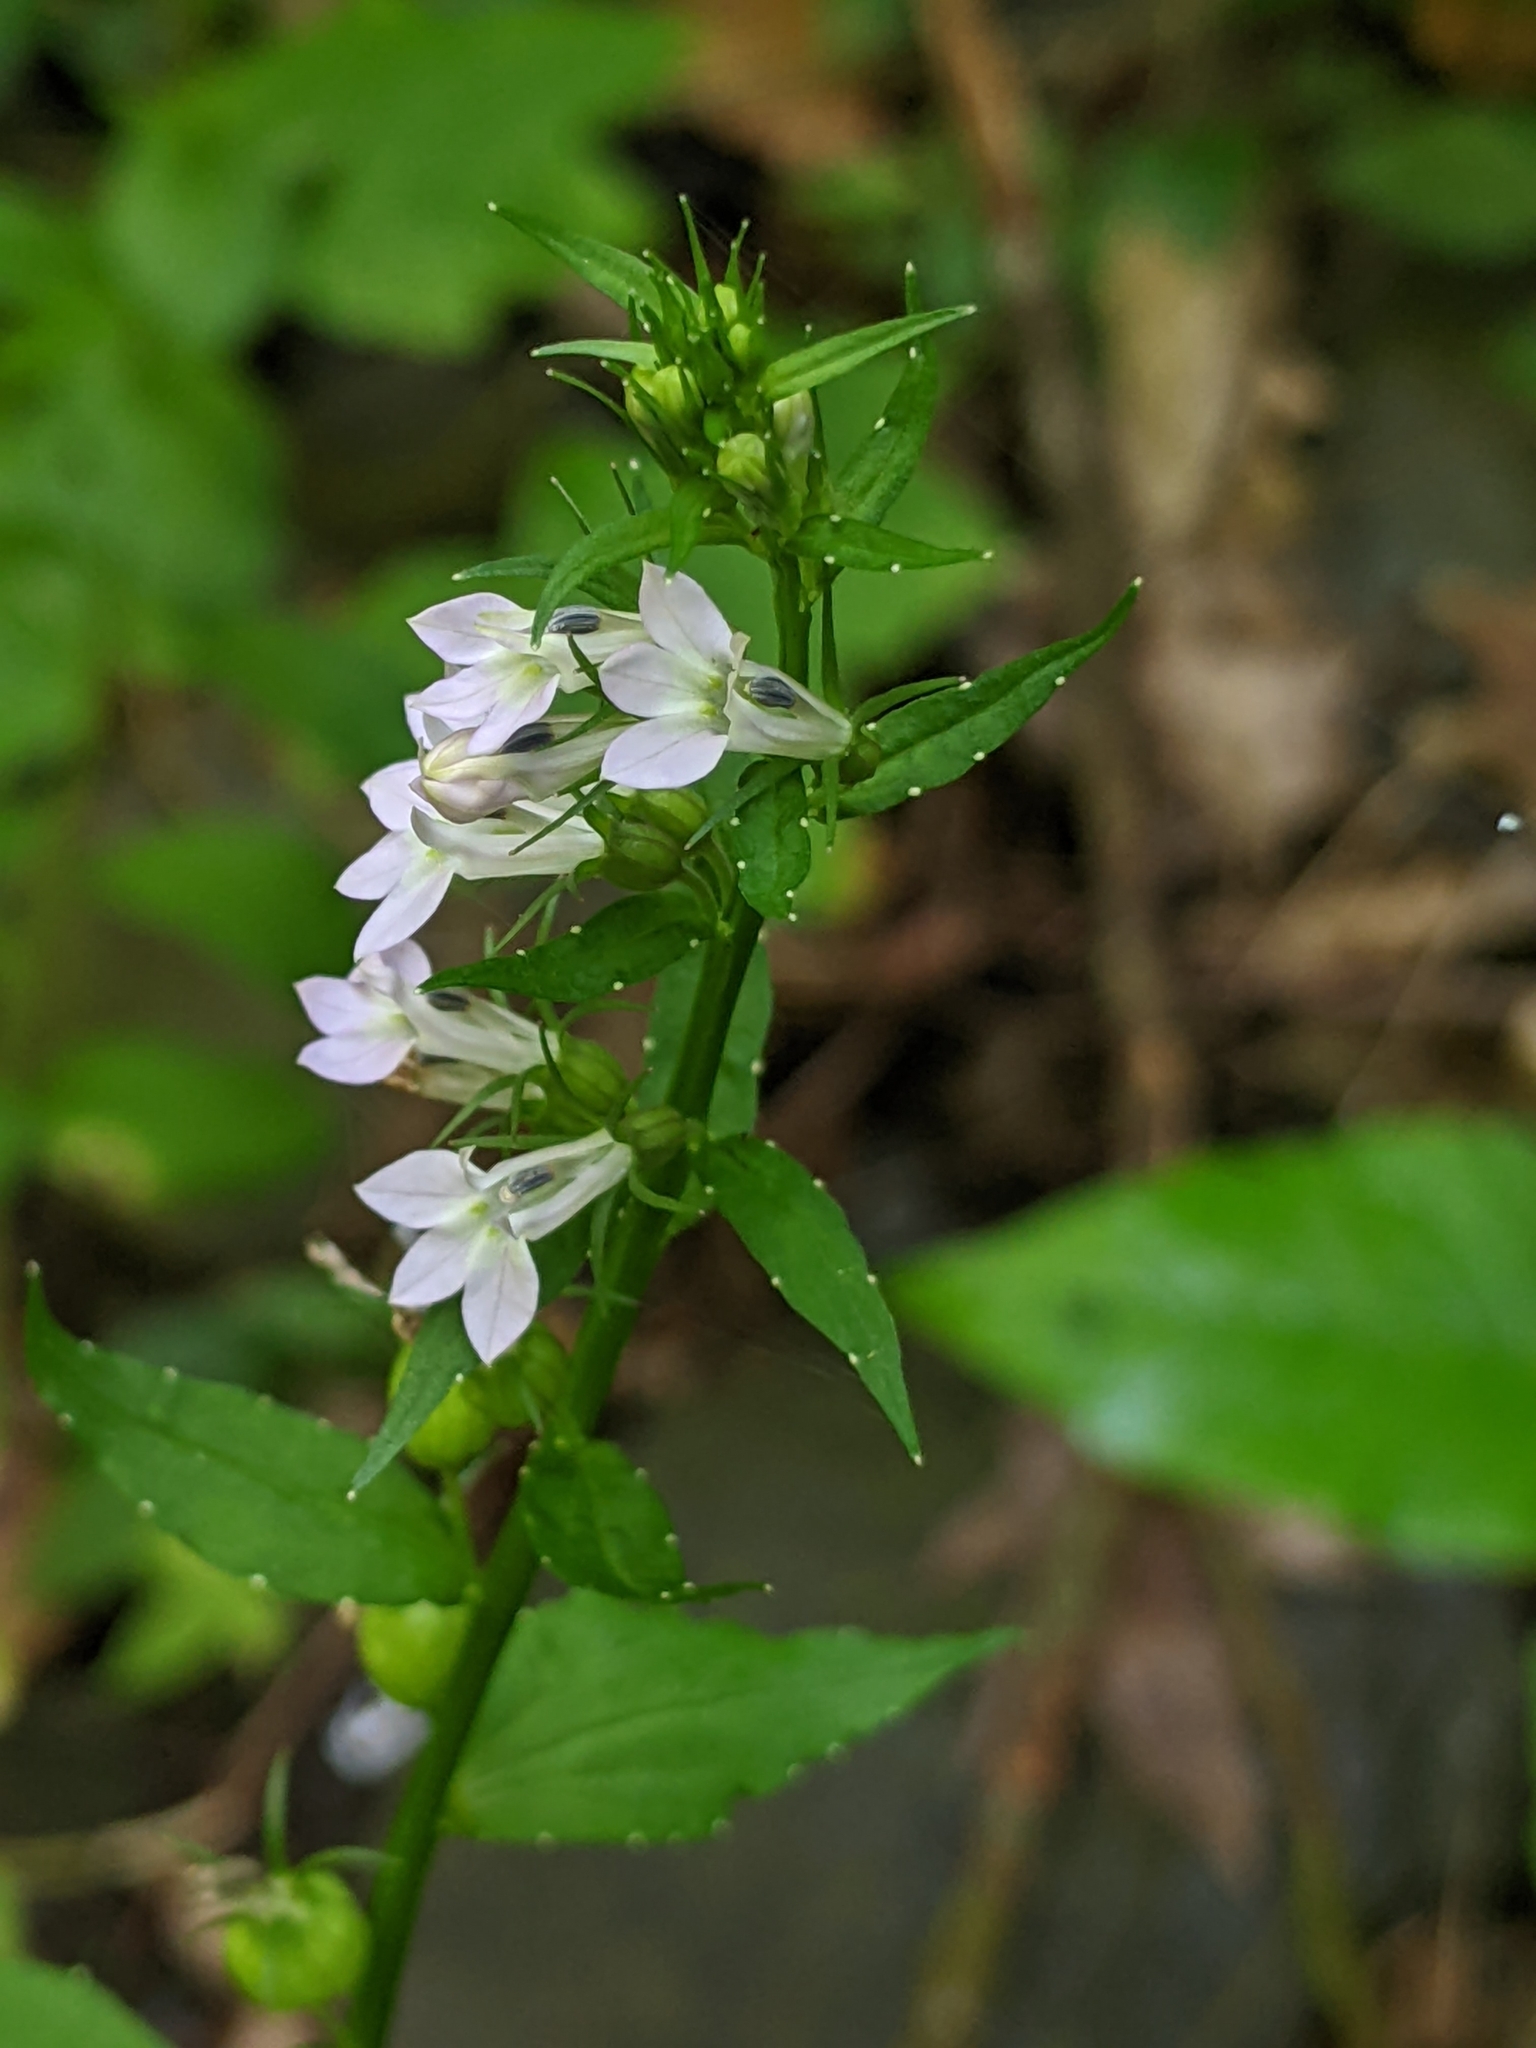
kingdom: Plantae
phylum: Tracheophyta
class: Magnoliopsida
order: Asterales
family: Campanulaceae
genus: Lobelia
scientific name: Lobelia inflata
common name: Indian tobacco
